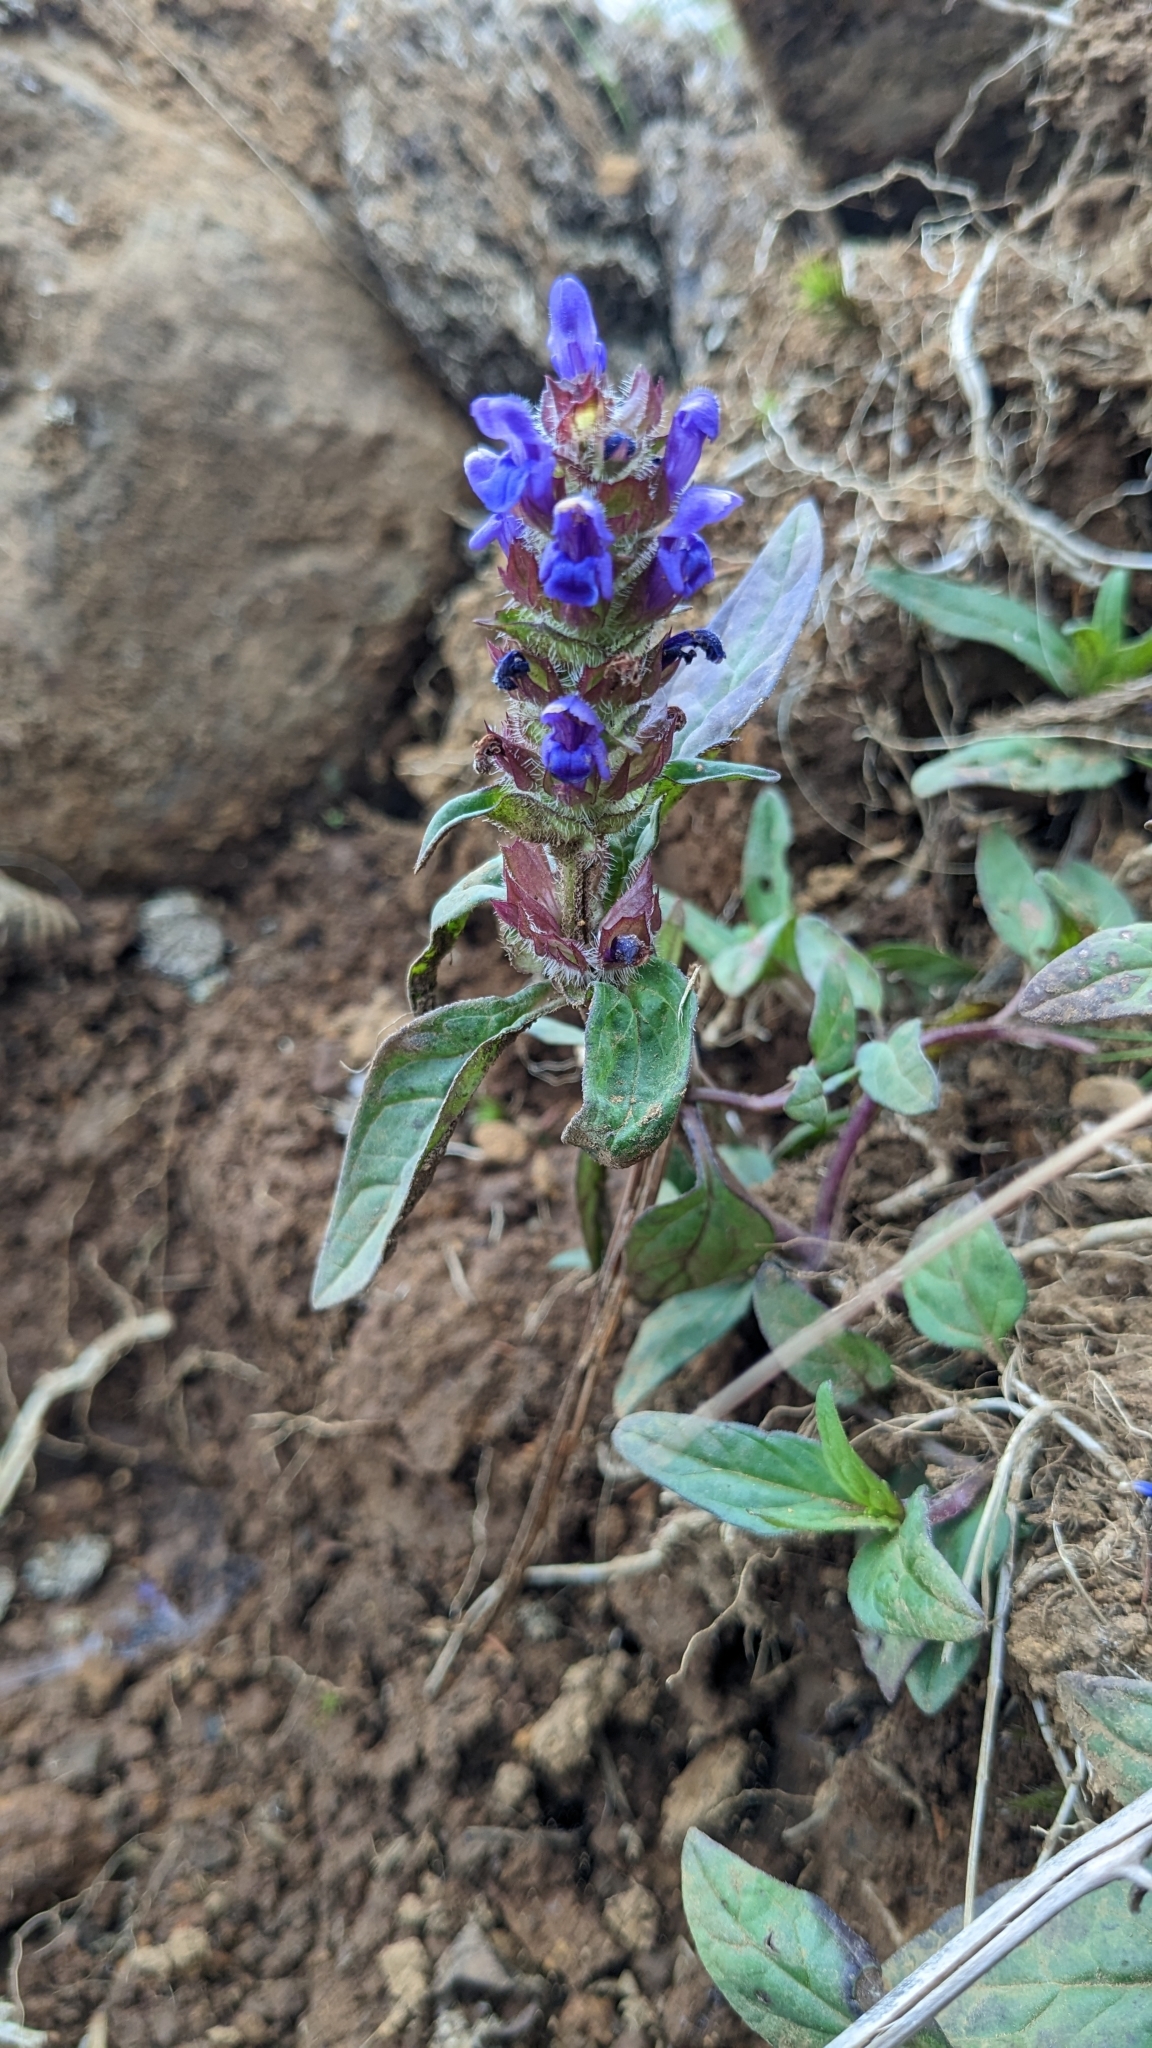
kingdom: Plantae
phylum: Tracheophyta
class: Magnoliopsida
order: Lamiales
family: Lamiaceae
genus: Prunella
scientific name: Prunella vulgaris
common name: Heal-all
